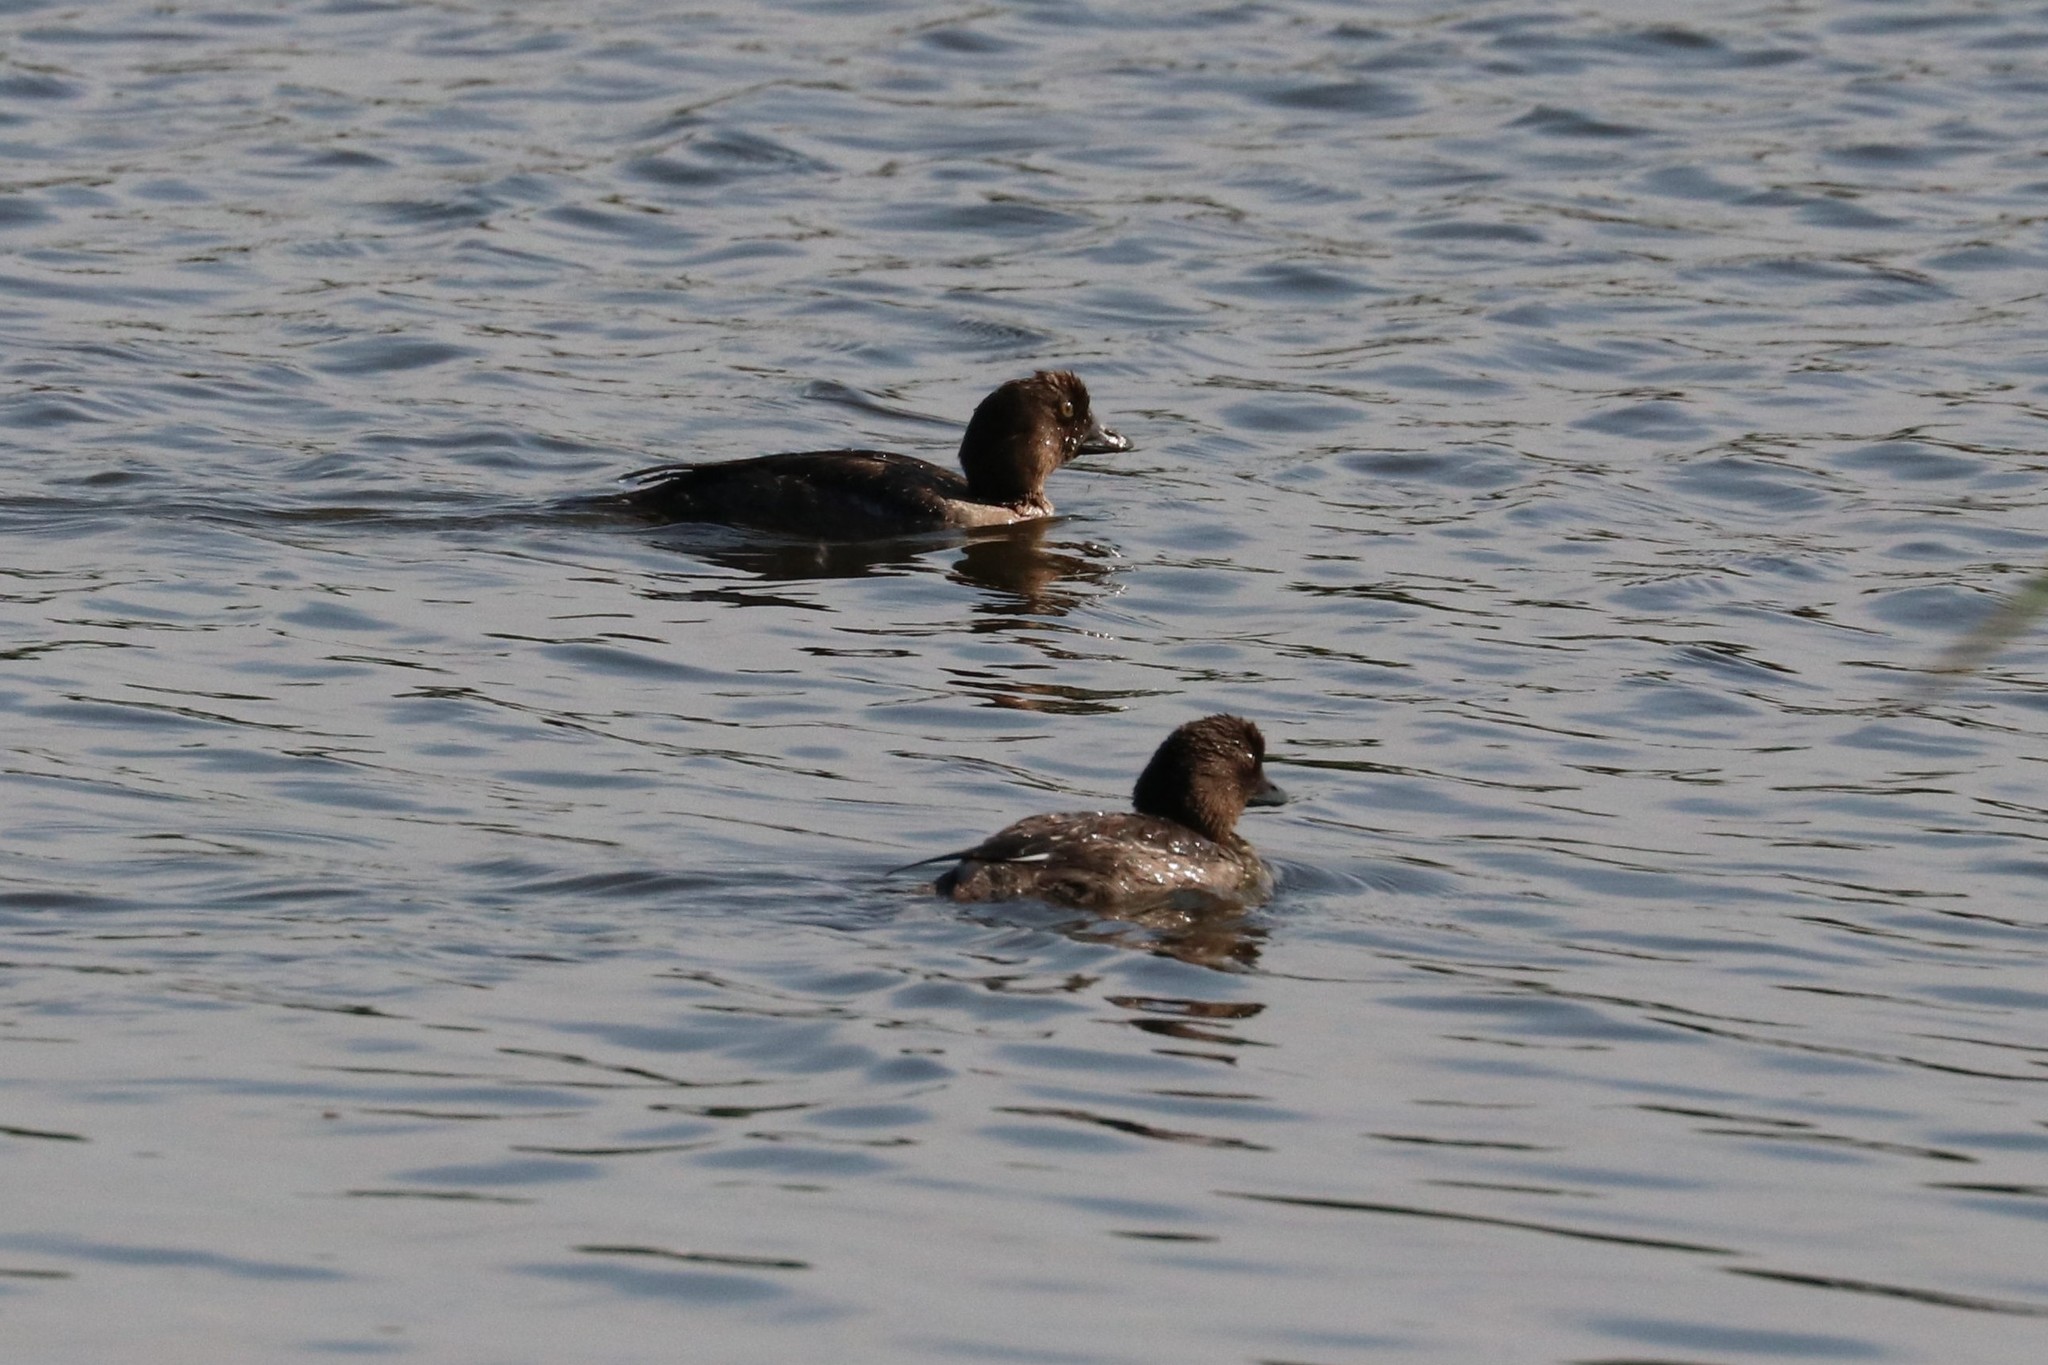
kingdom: Animalia
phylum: Chordata
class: Aves
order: Anseriformes
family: Anatidae
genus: Bucephala
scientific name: Bucephala clangula
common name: Common goldeneye
